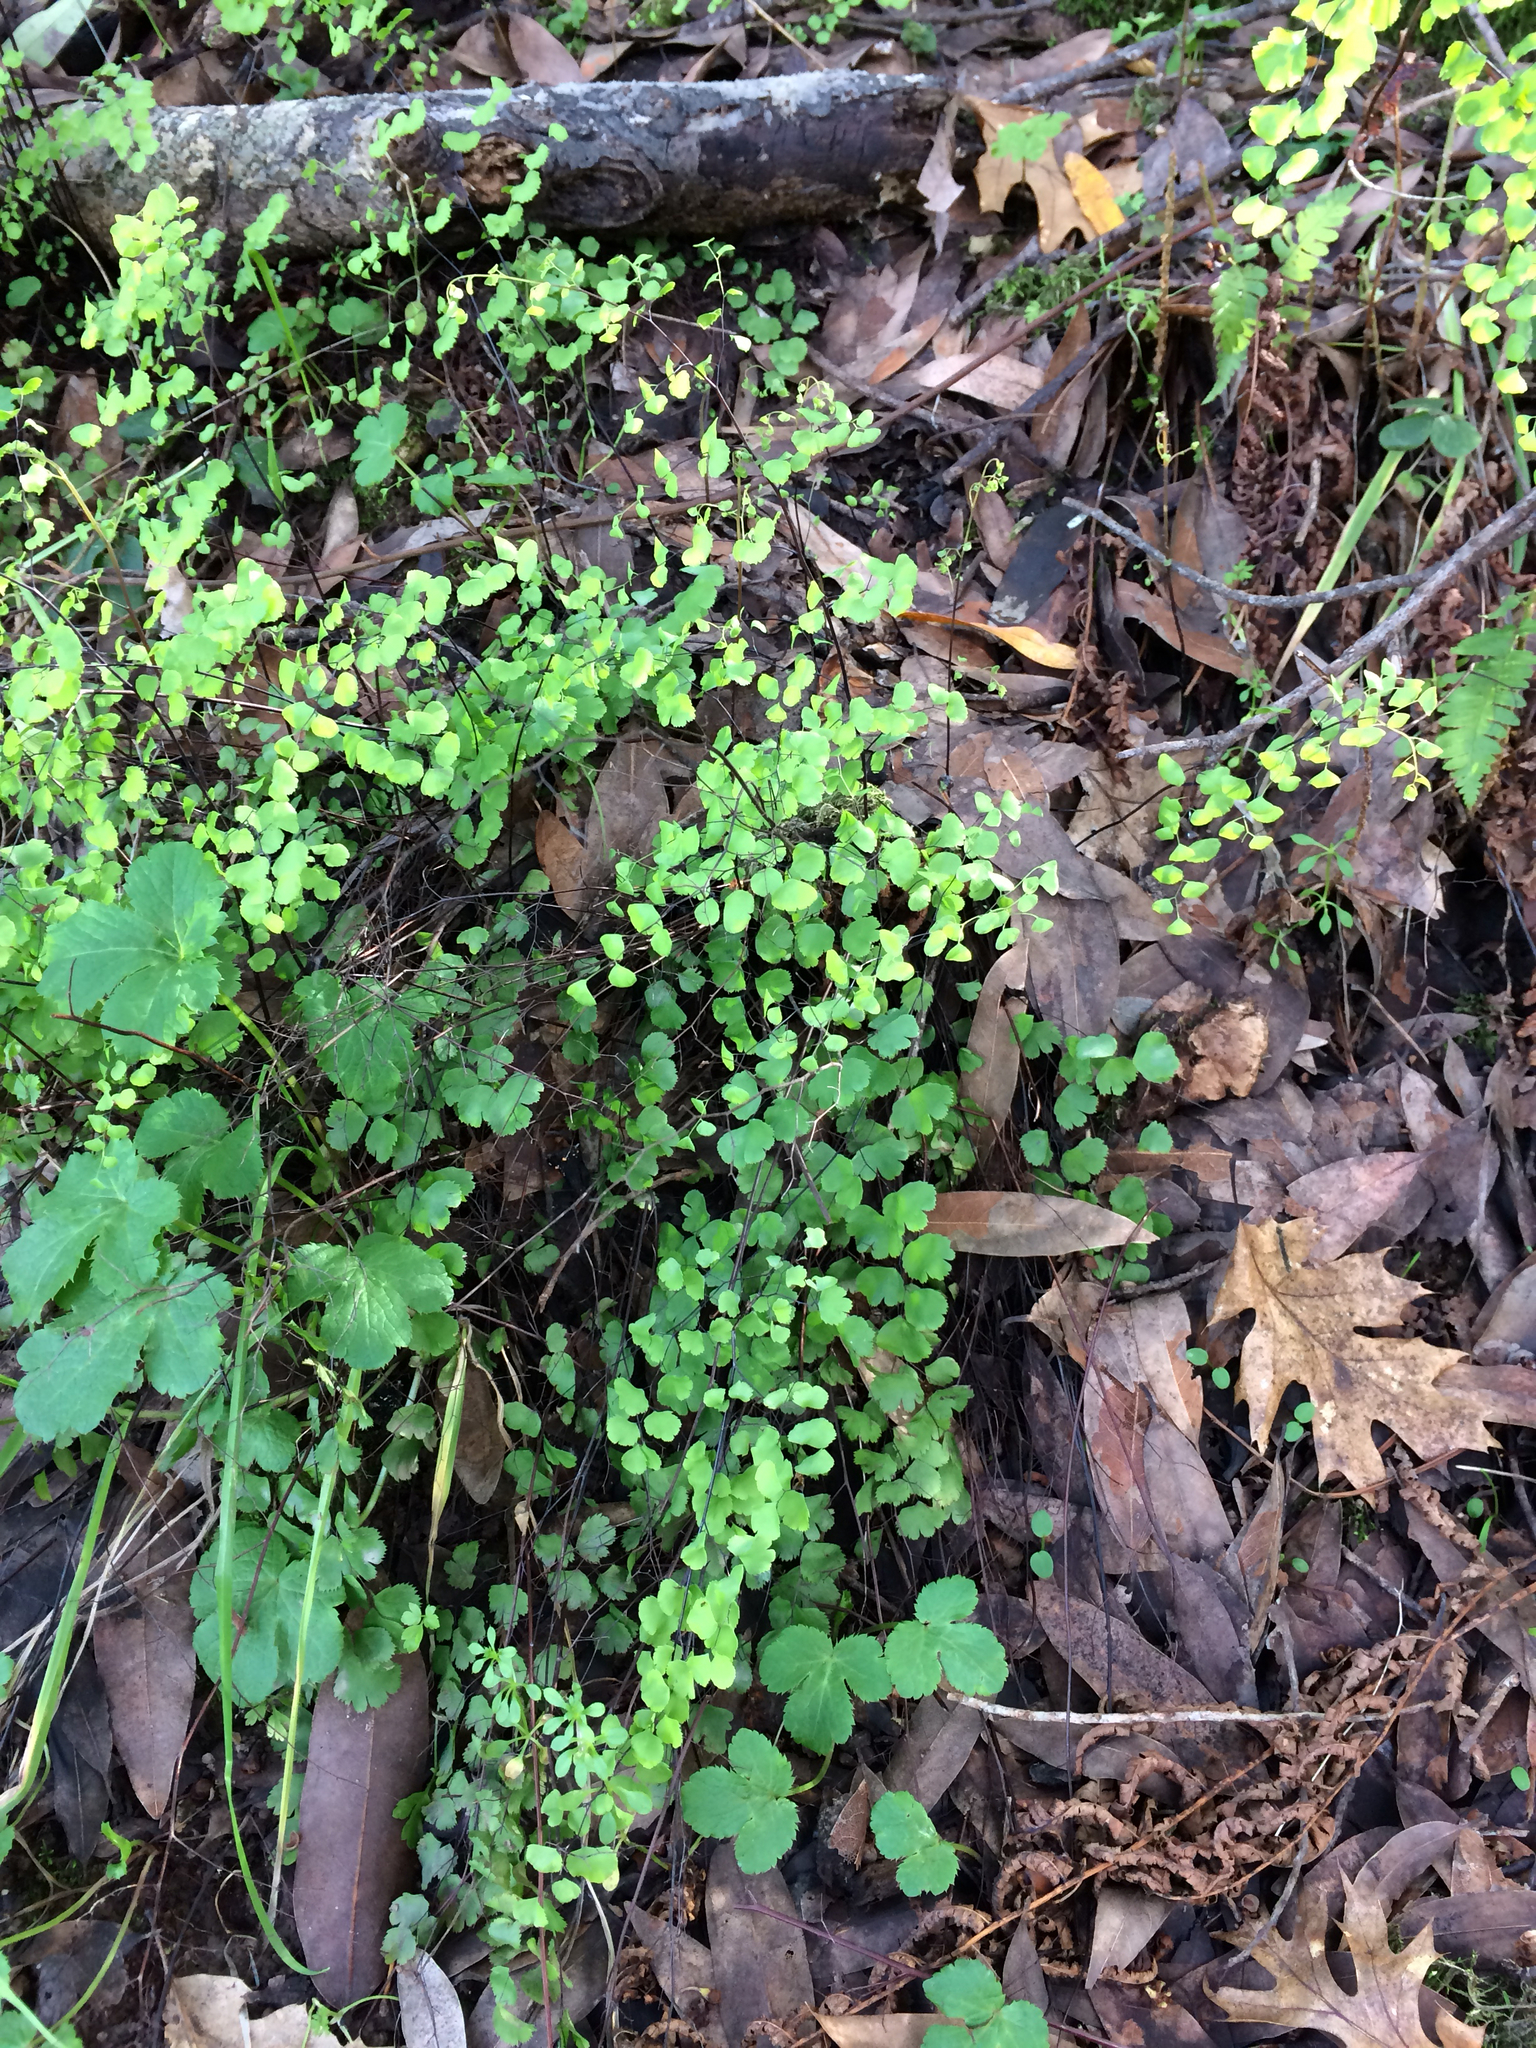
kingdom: Plantae
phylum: Tracheophyta
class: Polypodiopsida
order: Polypodiales
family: Pteridaceae
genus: Adiantum
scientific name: Adiantum jordanii
